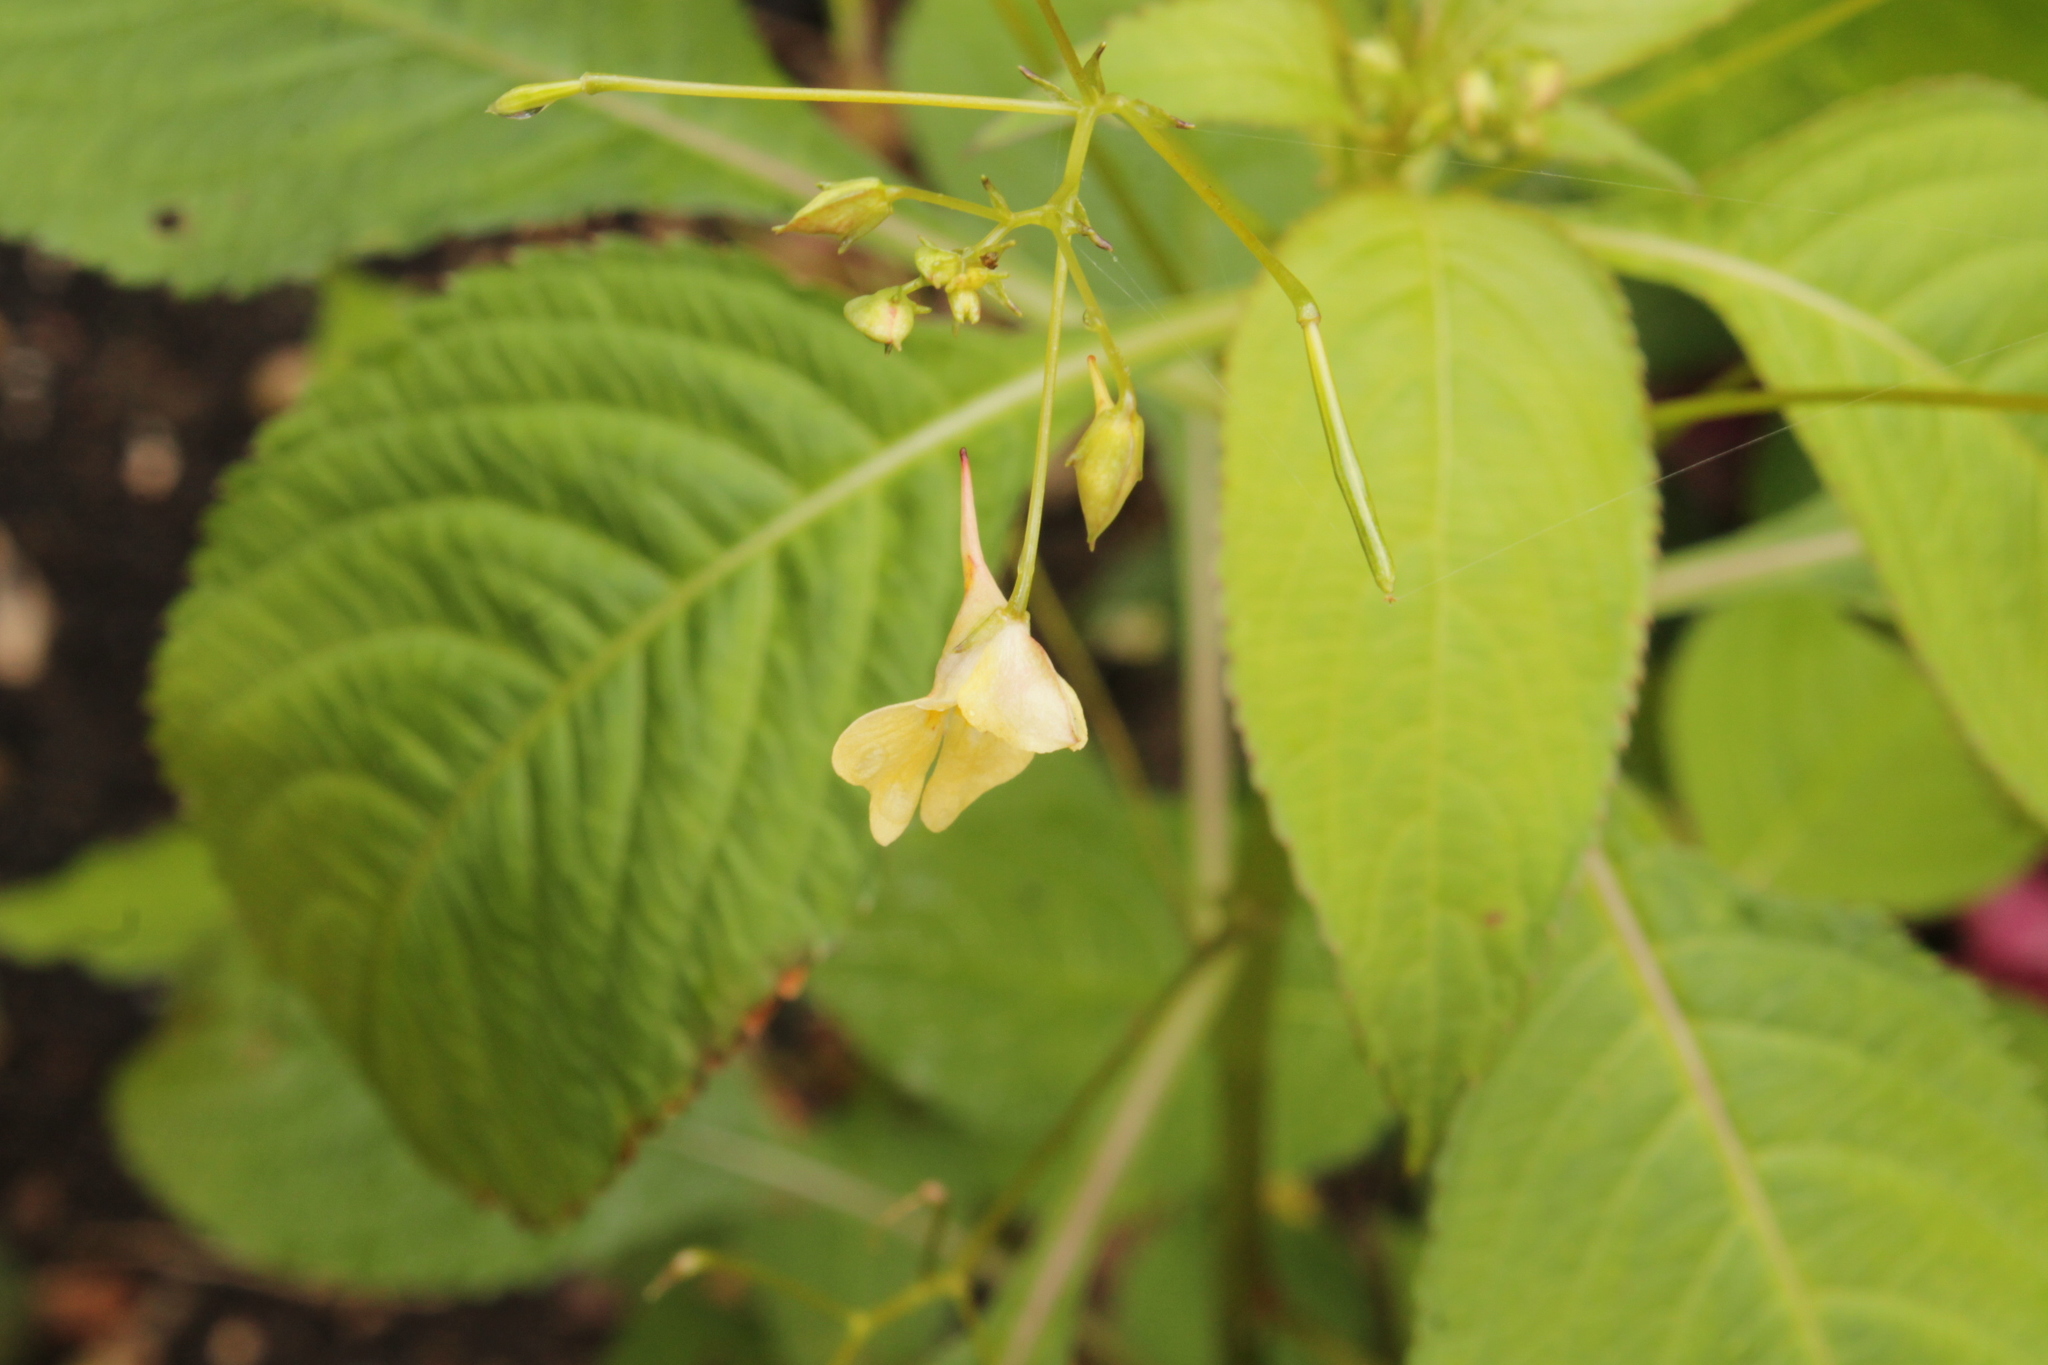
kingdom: Plantae
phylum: Tracheophyta
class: Magnoliopsida
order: Ericales
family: Balsaminaceae
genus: Impatiens
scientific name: Impatiens parviflora
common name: Small balsam
